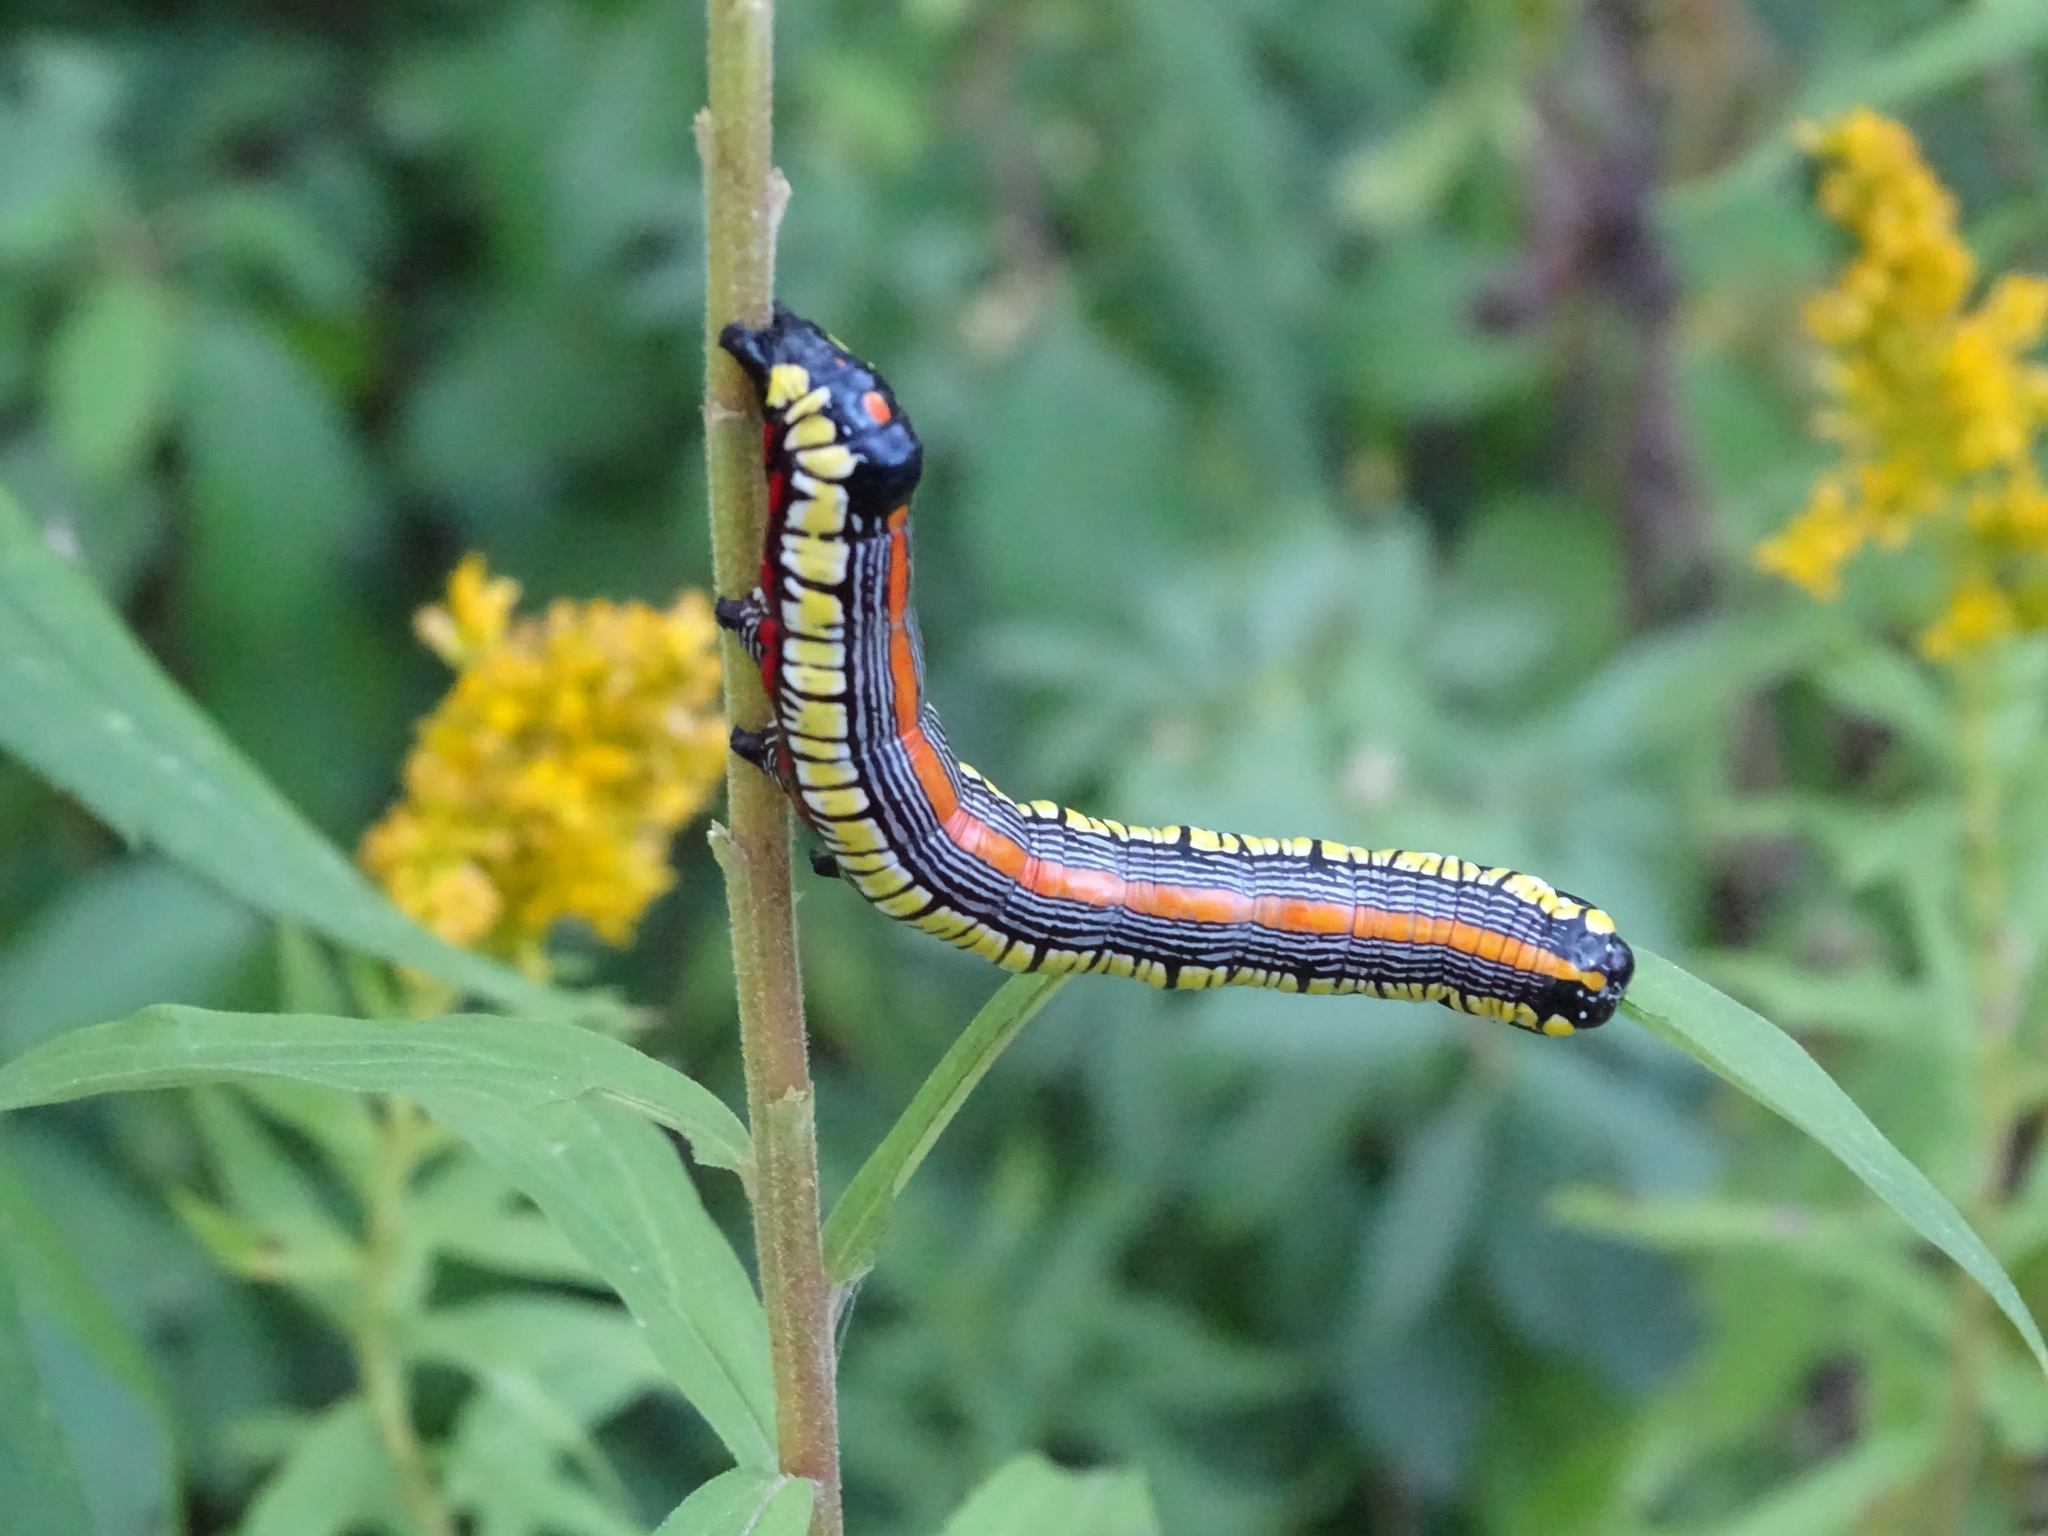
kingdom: Animalia
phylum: Arthropoda
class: Insecta
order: Lepidoptera
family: Noctuidae
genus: Cucullia
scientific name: Cucullia convexipennis
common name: Brown-hooded owlet
